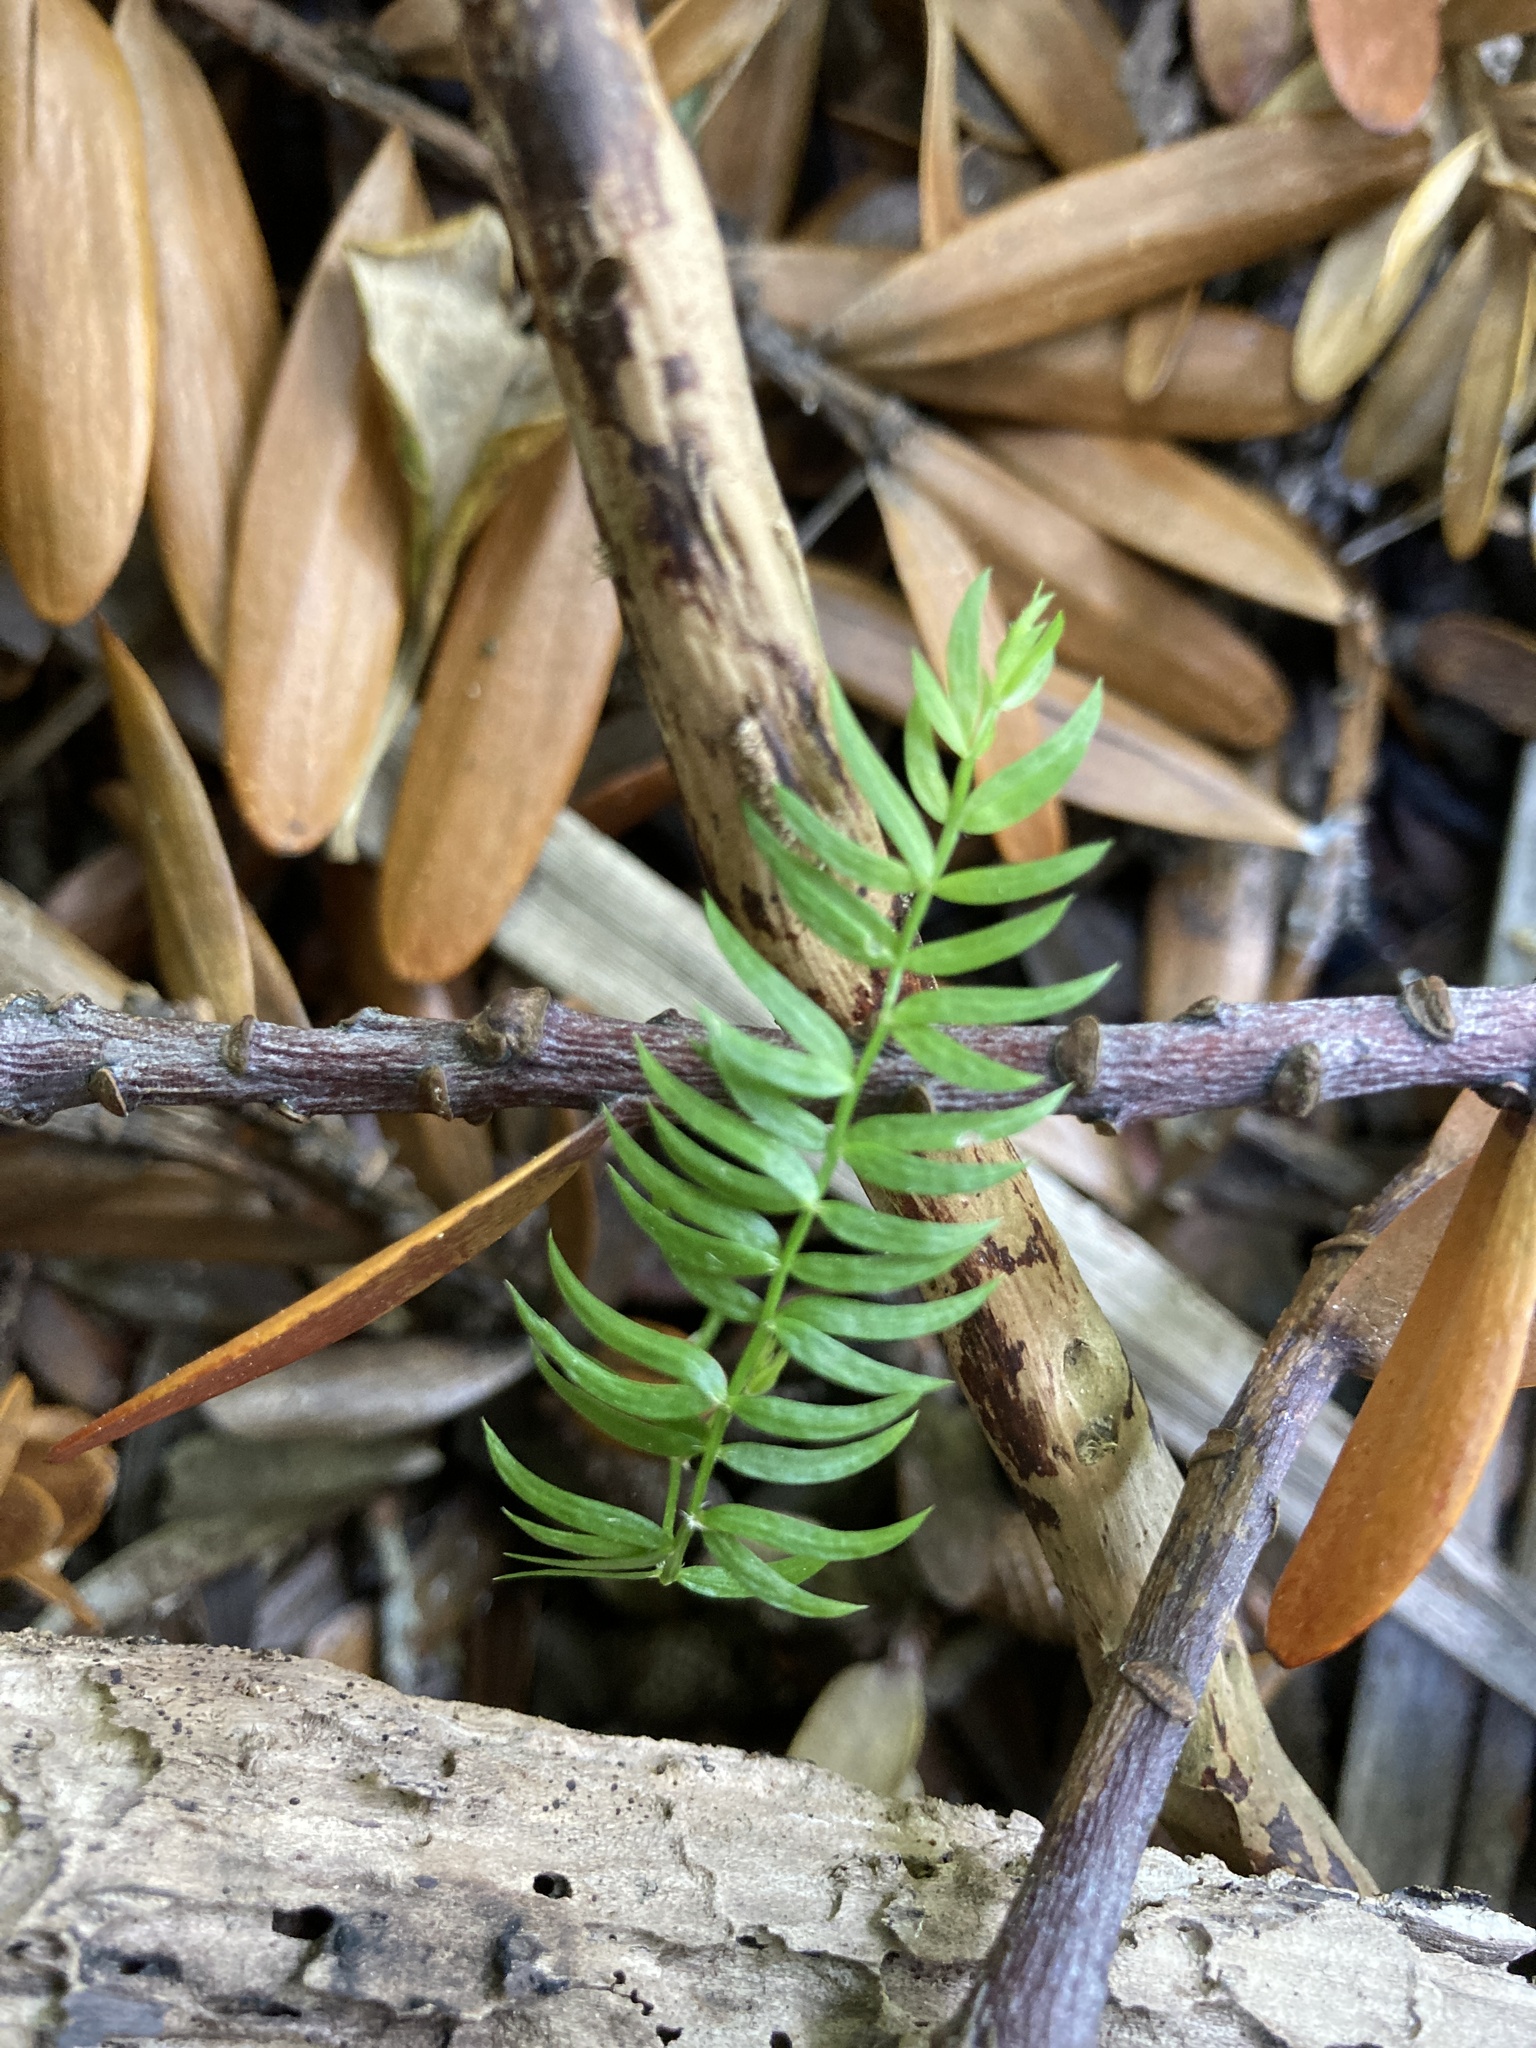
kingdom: Plantae
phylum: Tracheophyta
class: Liliopsida
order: Asparagales
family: Asparagaceae
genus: Asparagus
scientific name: Asparagus scandens
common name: Asparagus-fern
